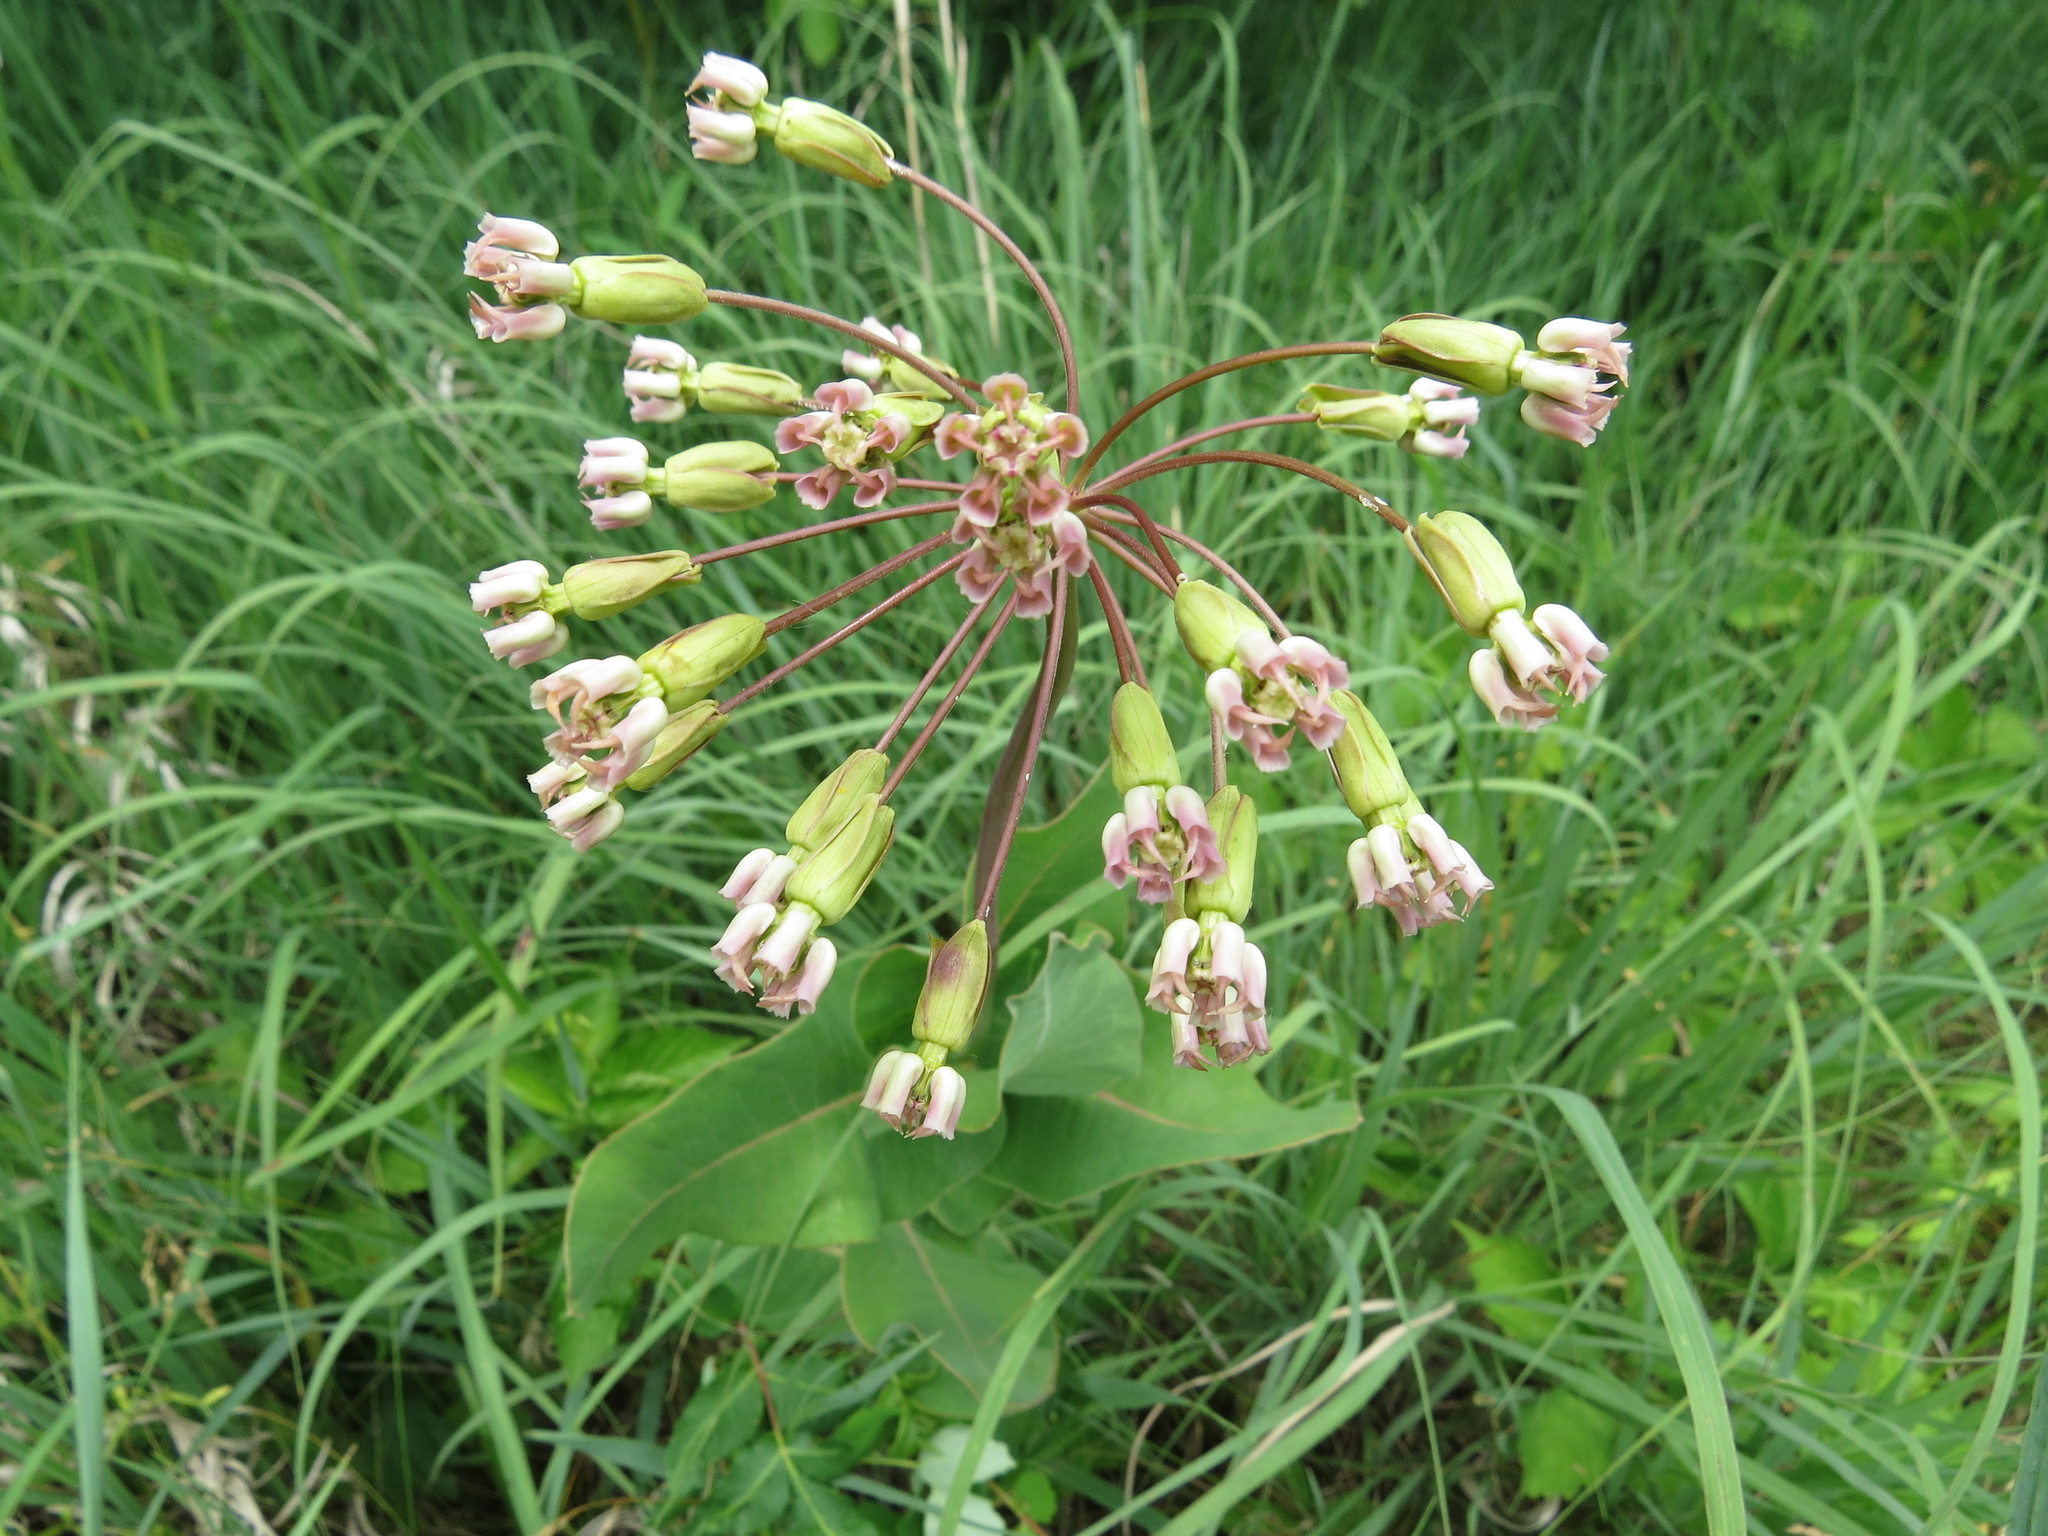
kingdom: Plantae
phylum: Tracheophyta
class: Magnoliopsida
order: Gentianales
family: Apocynaceae
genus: Asclepias
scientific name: Asclepias amplexicaulis
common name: Blunt-leaf milkweed
